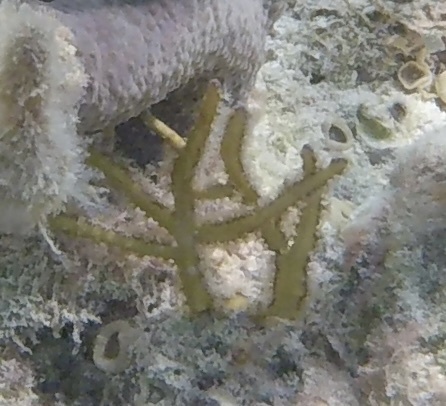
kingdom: Animalia
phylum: Cnidaria
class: Anthozoa
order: Malacalcyonacea
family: Pterogorgiidae
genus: Pterogorgia
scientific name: Pterogorgia citrina
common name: Yellow sea whip
